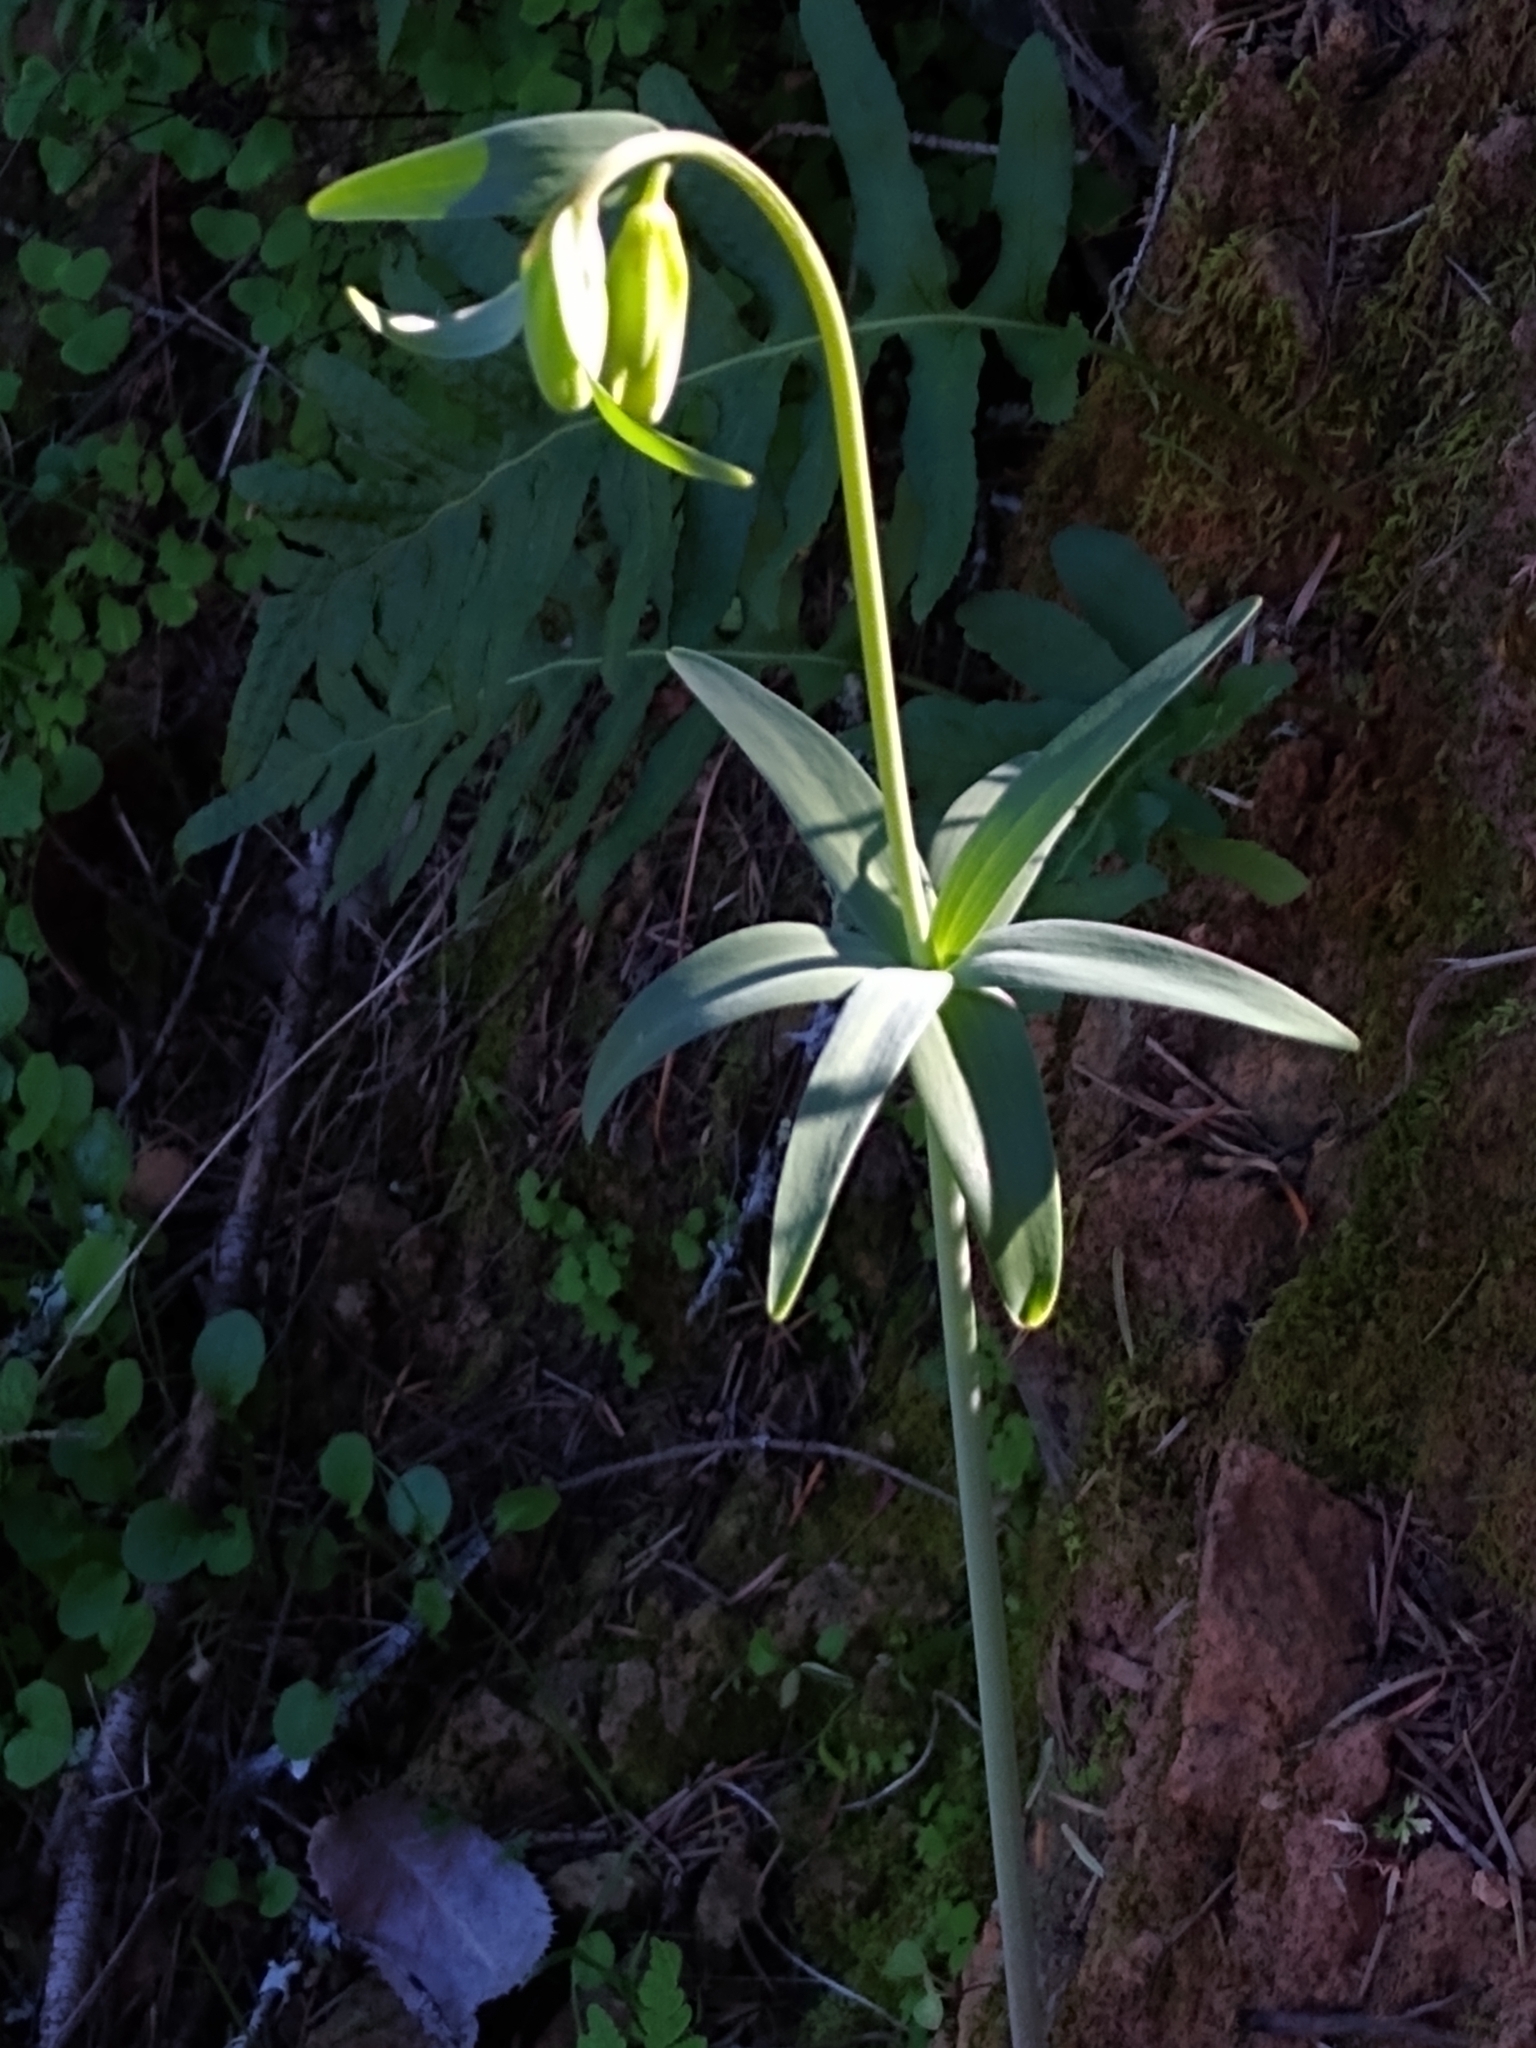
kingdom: Plantae
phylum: Tracheophyta
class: Liliopsida
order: Liliales
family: Liliaceae
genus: Fritillaria
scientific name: Fritillaria affinis
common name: Ojai fritillary
